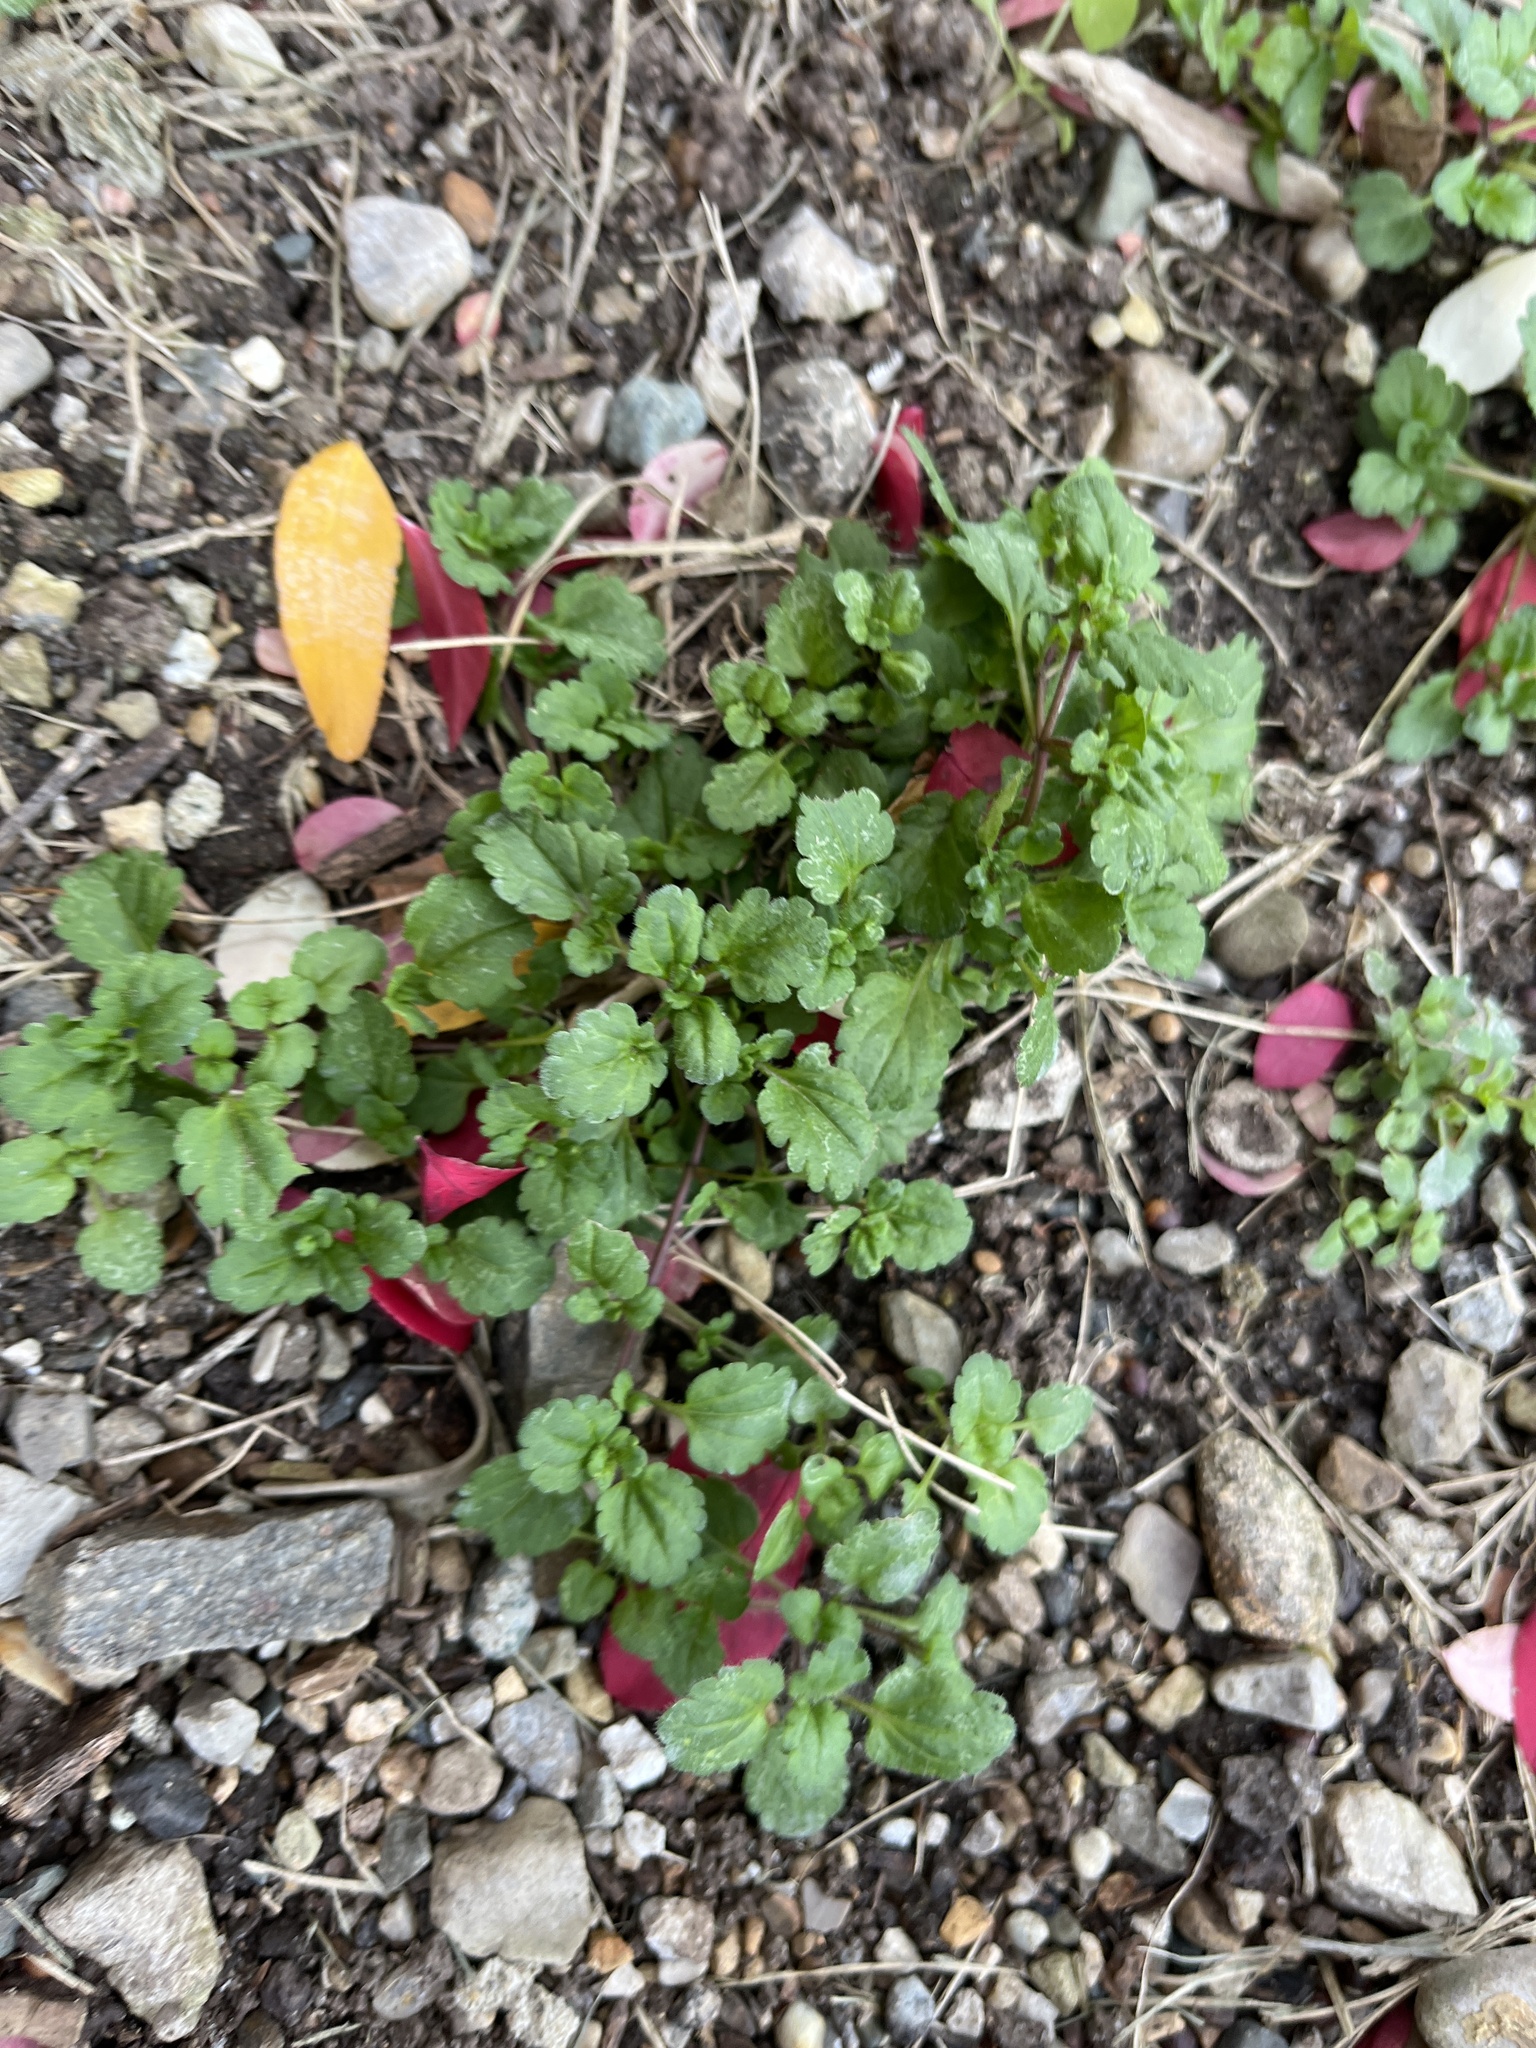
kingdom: Plantae
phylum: Tracheophyta
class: Magnoliopsida
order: Lamiales
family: Plantaginaceae
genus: Veronica
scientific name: Veronica persica
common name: Common field-speedwell
